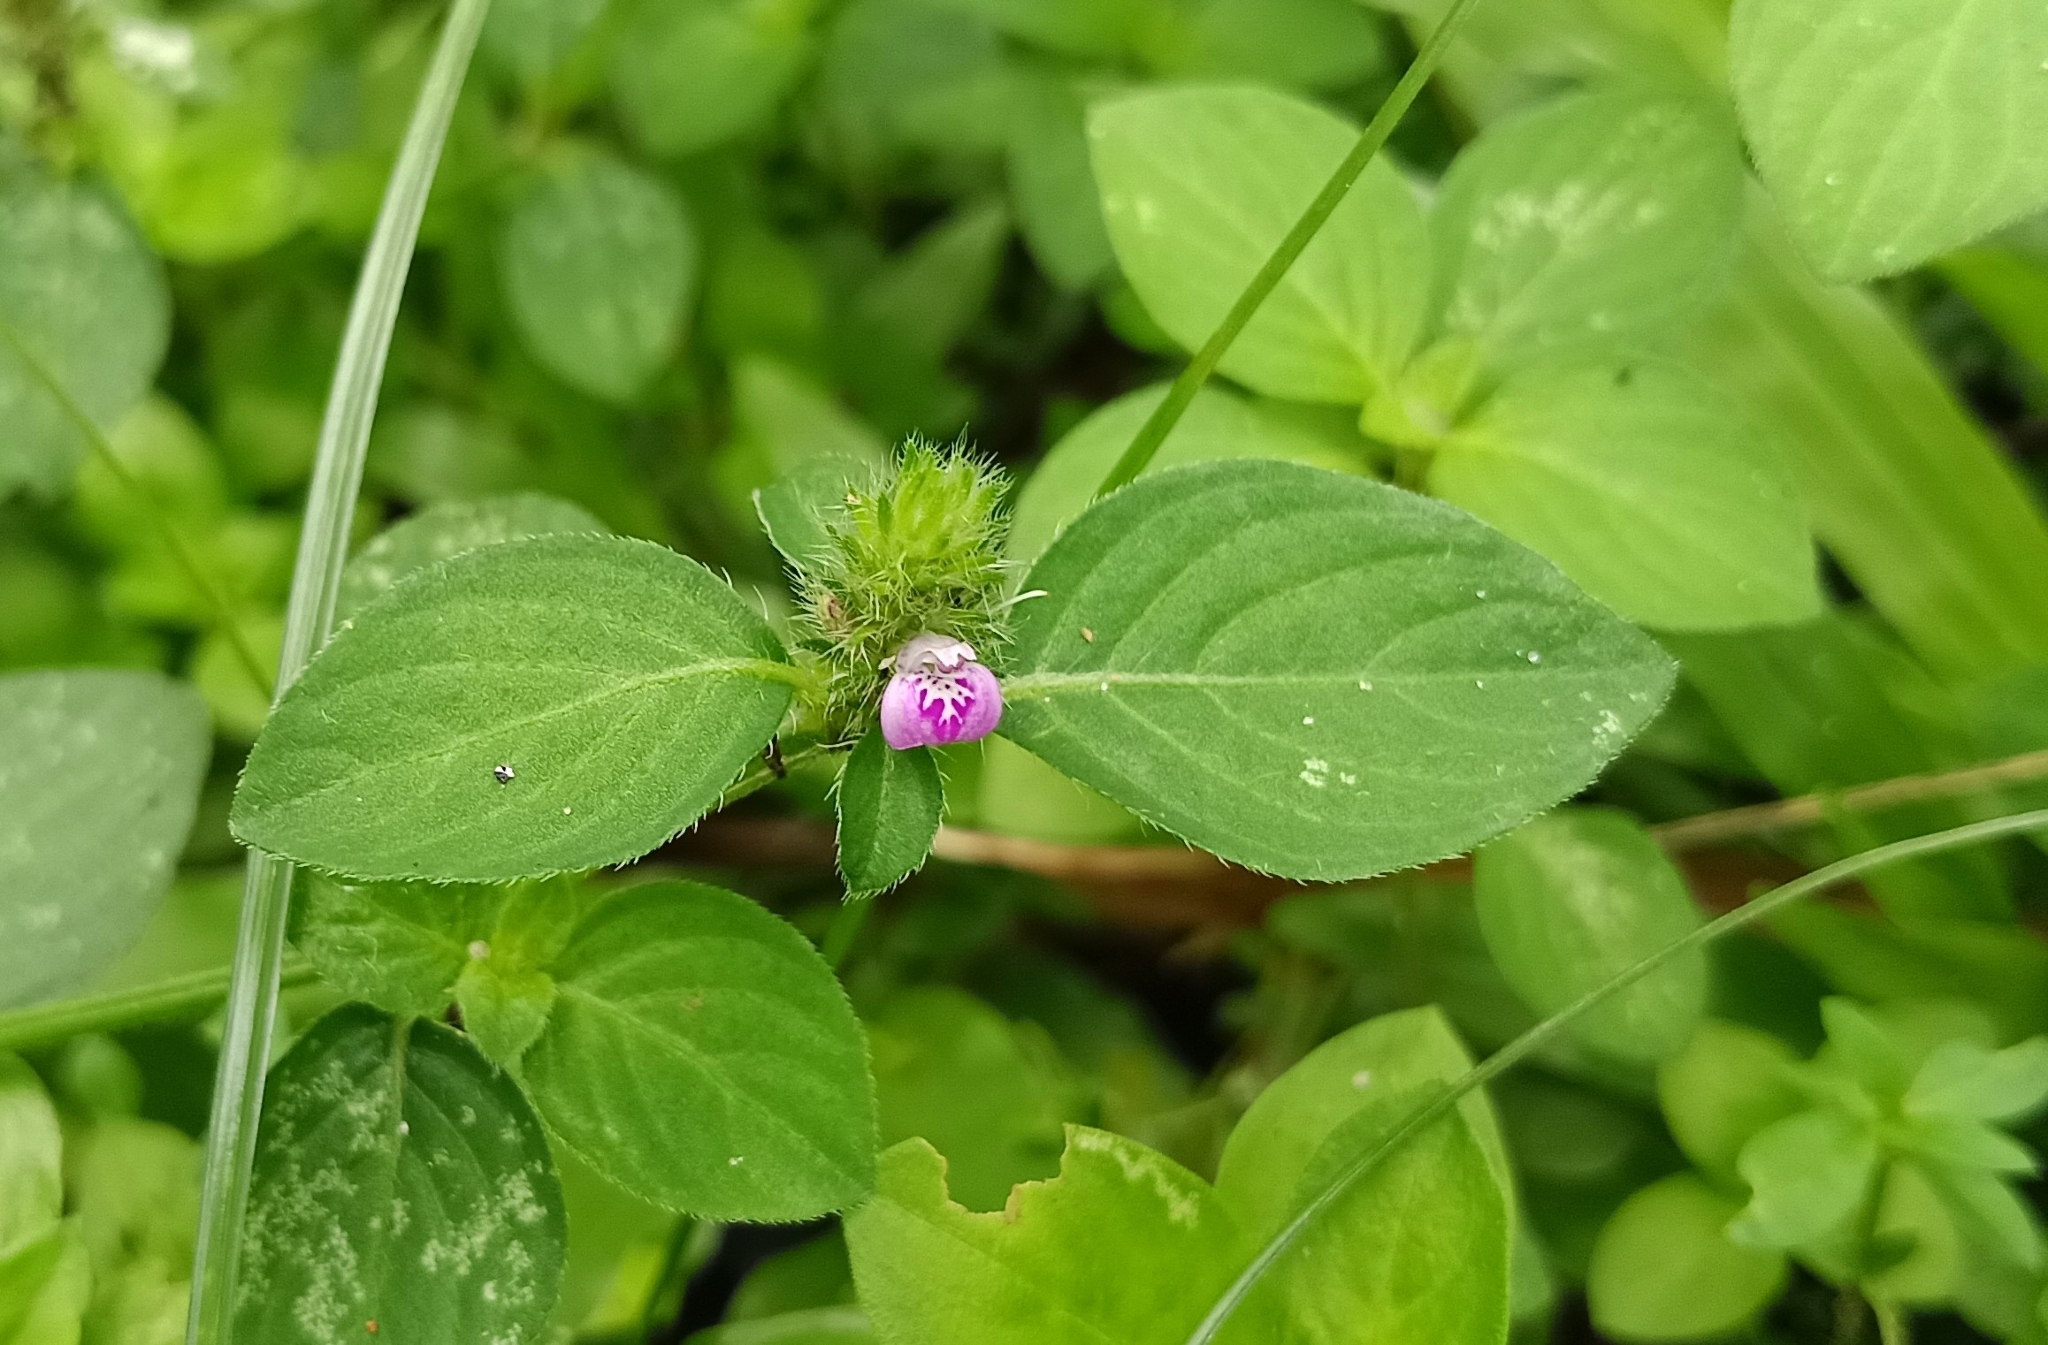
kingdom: Plantae
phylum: Tracheophyta
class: Magnoliopsida
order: Lamiales
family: Acanthaceae
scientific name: Acanthaceae
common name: Acanthaceae
